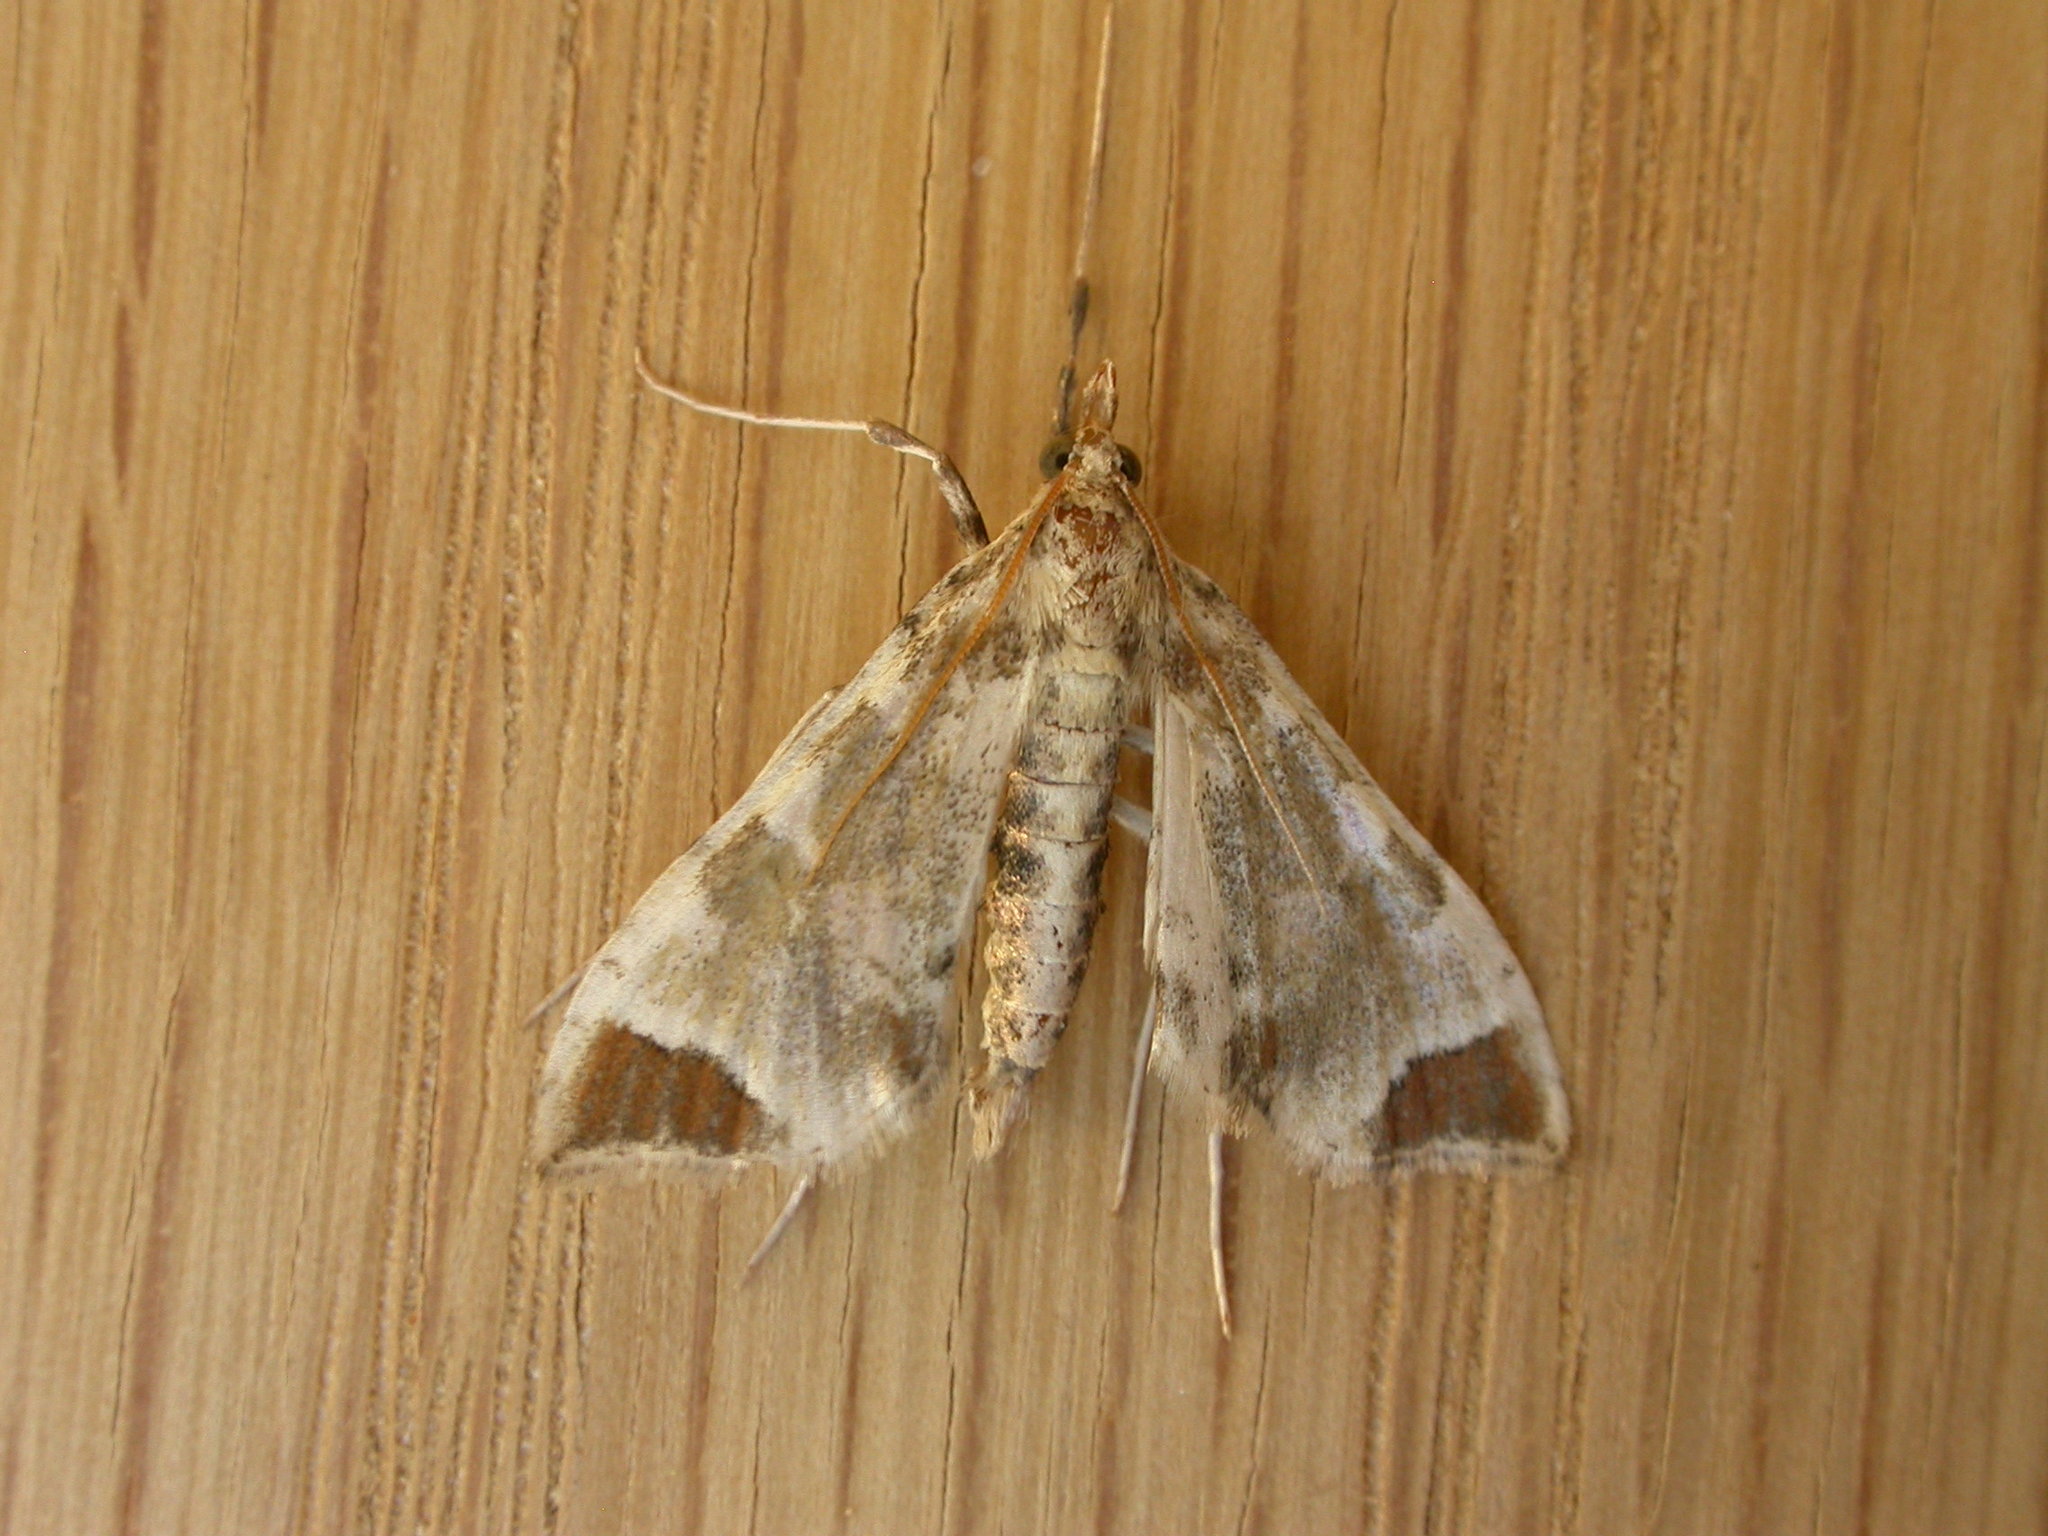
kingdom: Animalia
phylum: Arthropoda
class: Insecta
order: Lepidoptera
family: Crambidae
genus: Sceliodes
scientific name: Sceliodes cordalis
